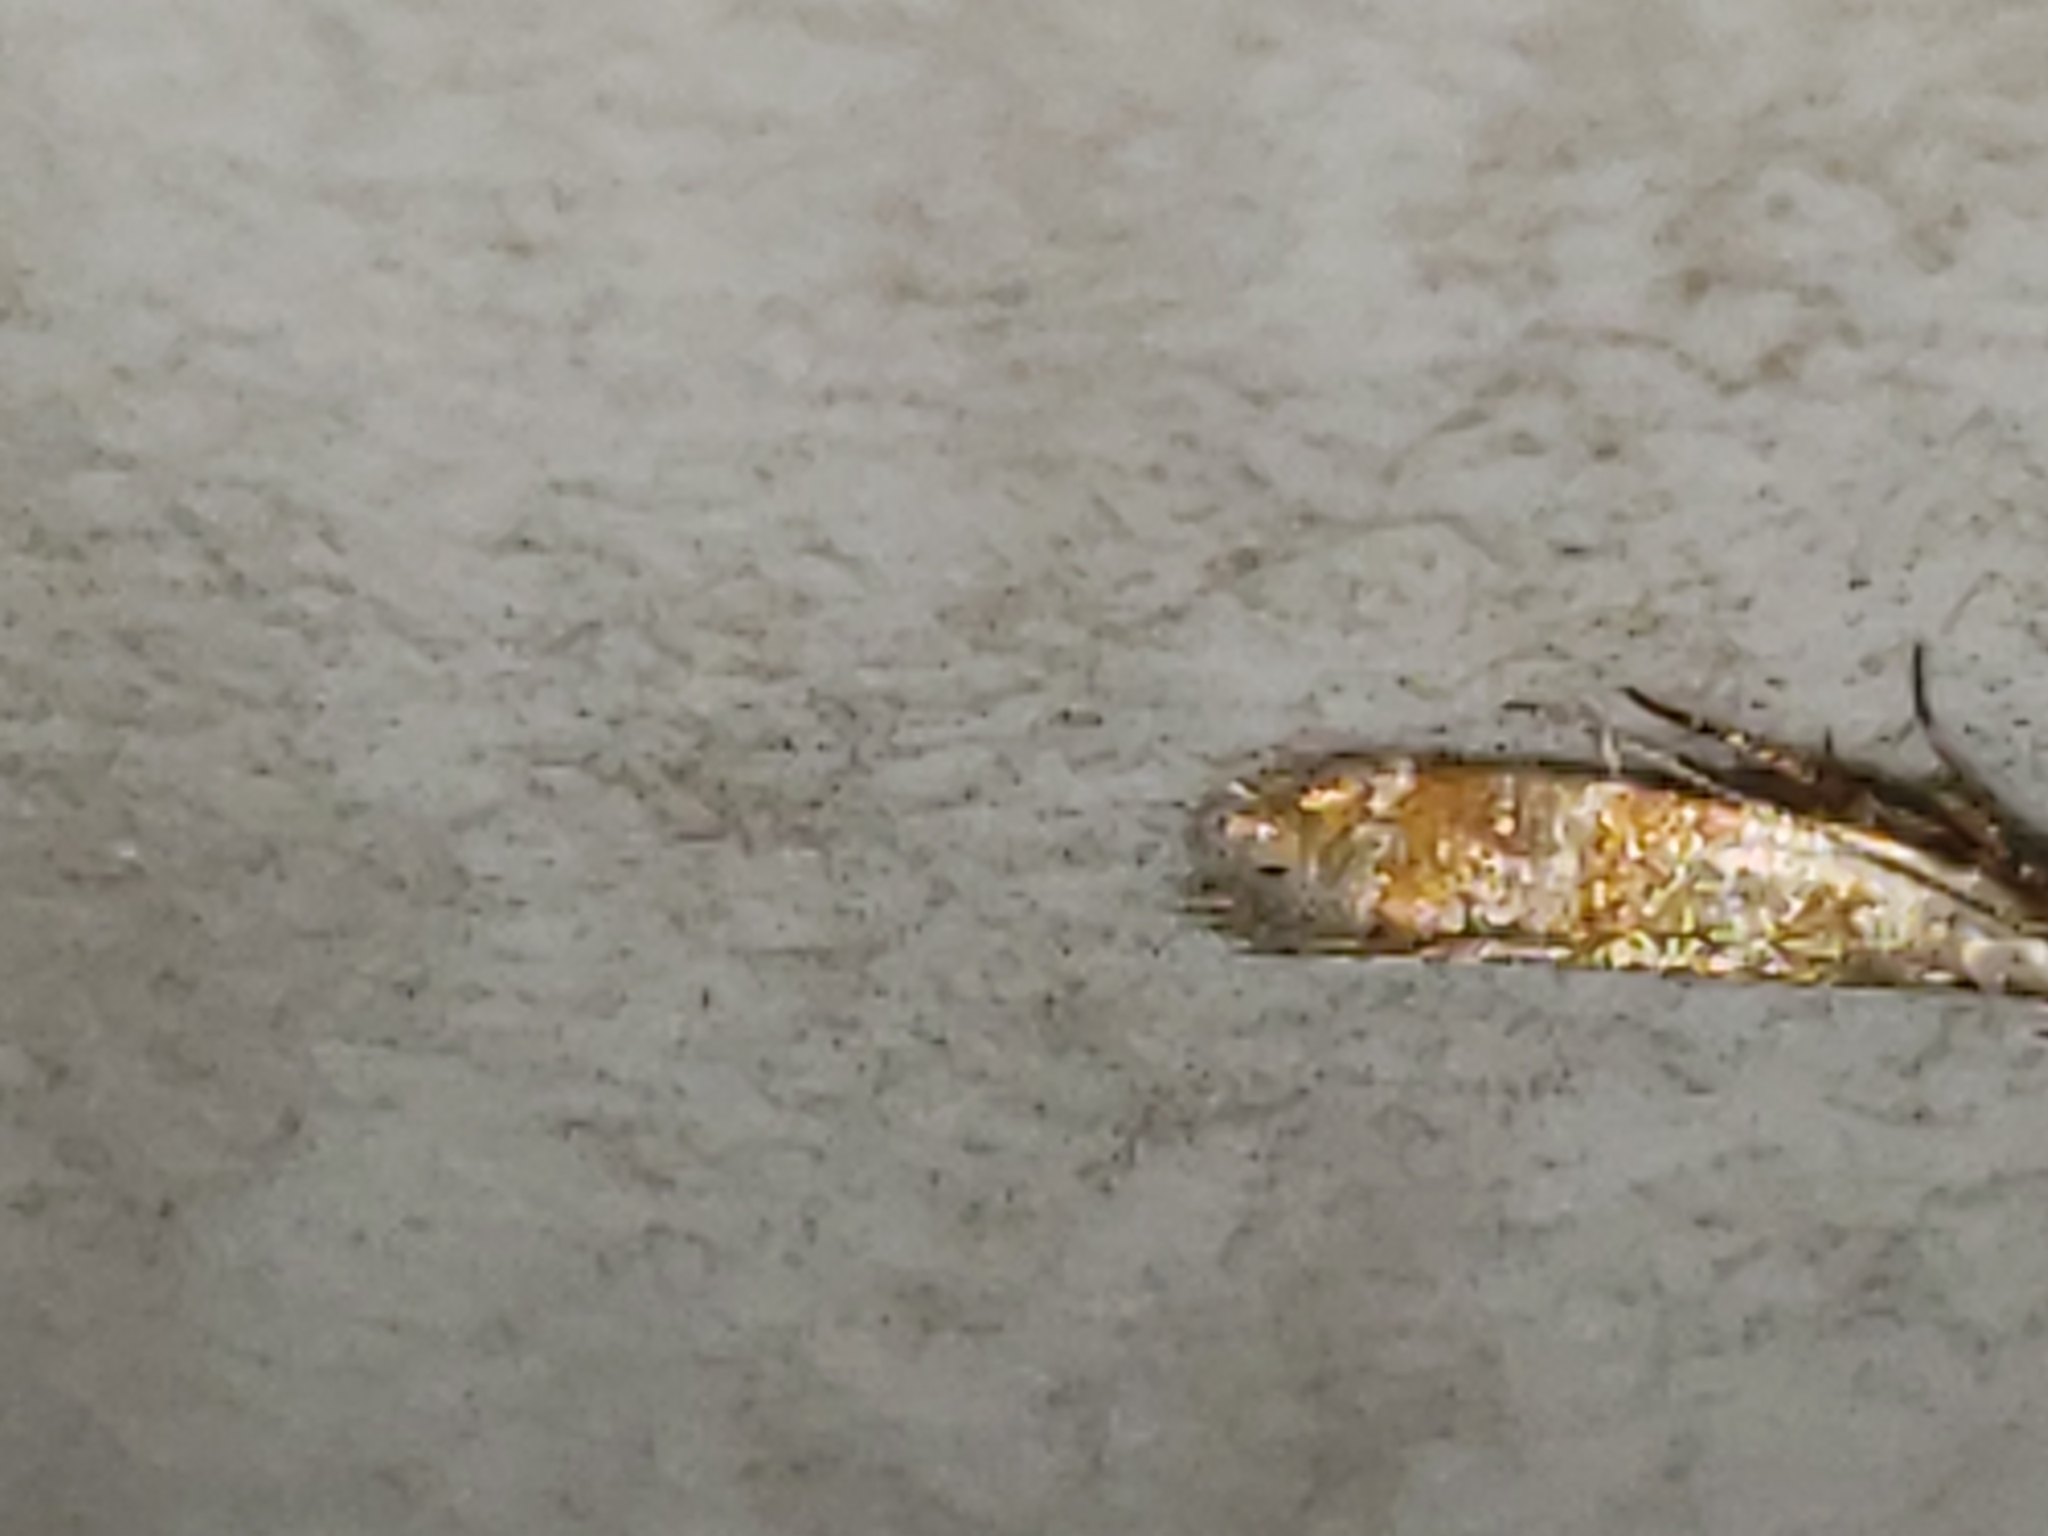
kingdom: Animalia
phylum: Arthropoda
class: Insecta
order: Lepidoptera
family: Gelechiidae
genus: Battaristis
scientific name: Battaristis vittella
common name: Orange stripe-backed moth
